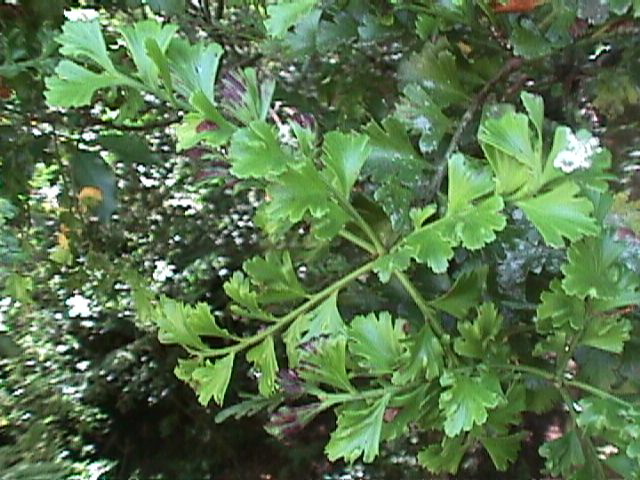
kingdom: Plantae
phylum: Tracheophyta
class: Pinopsida
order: Pinales
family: Phyllocladaceae
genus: Phyllocladus
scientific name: Phyllocladus trichomanoides
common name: Celery pine
